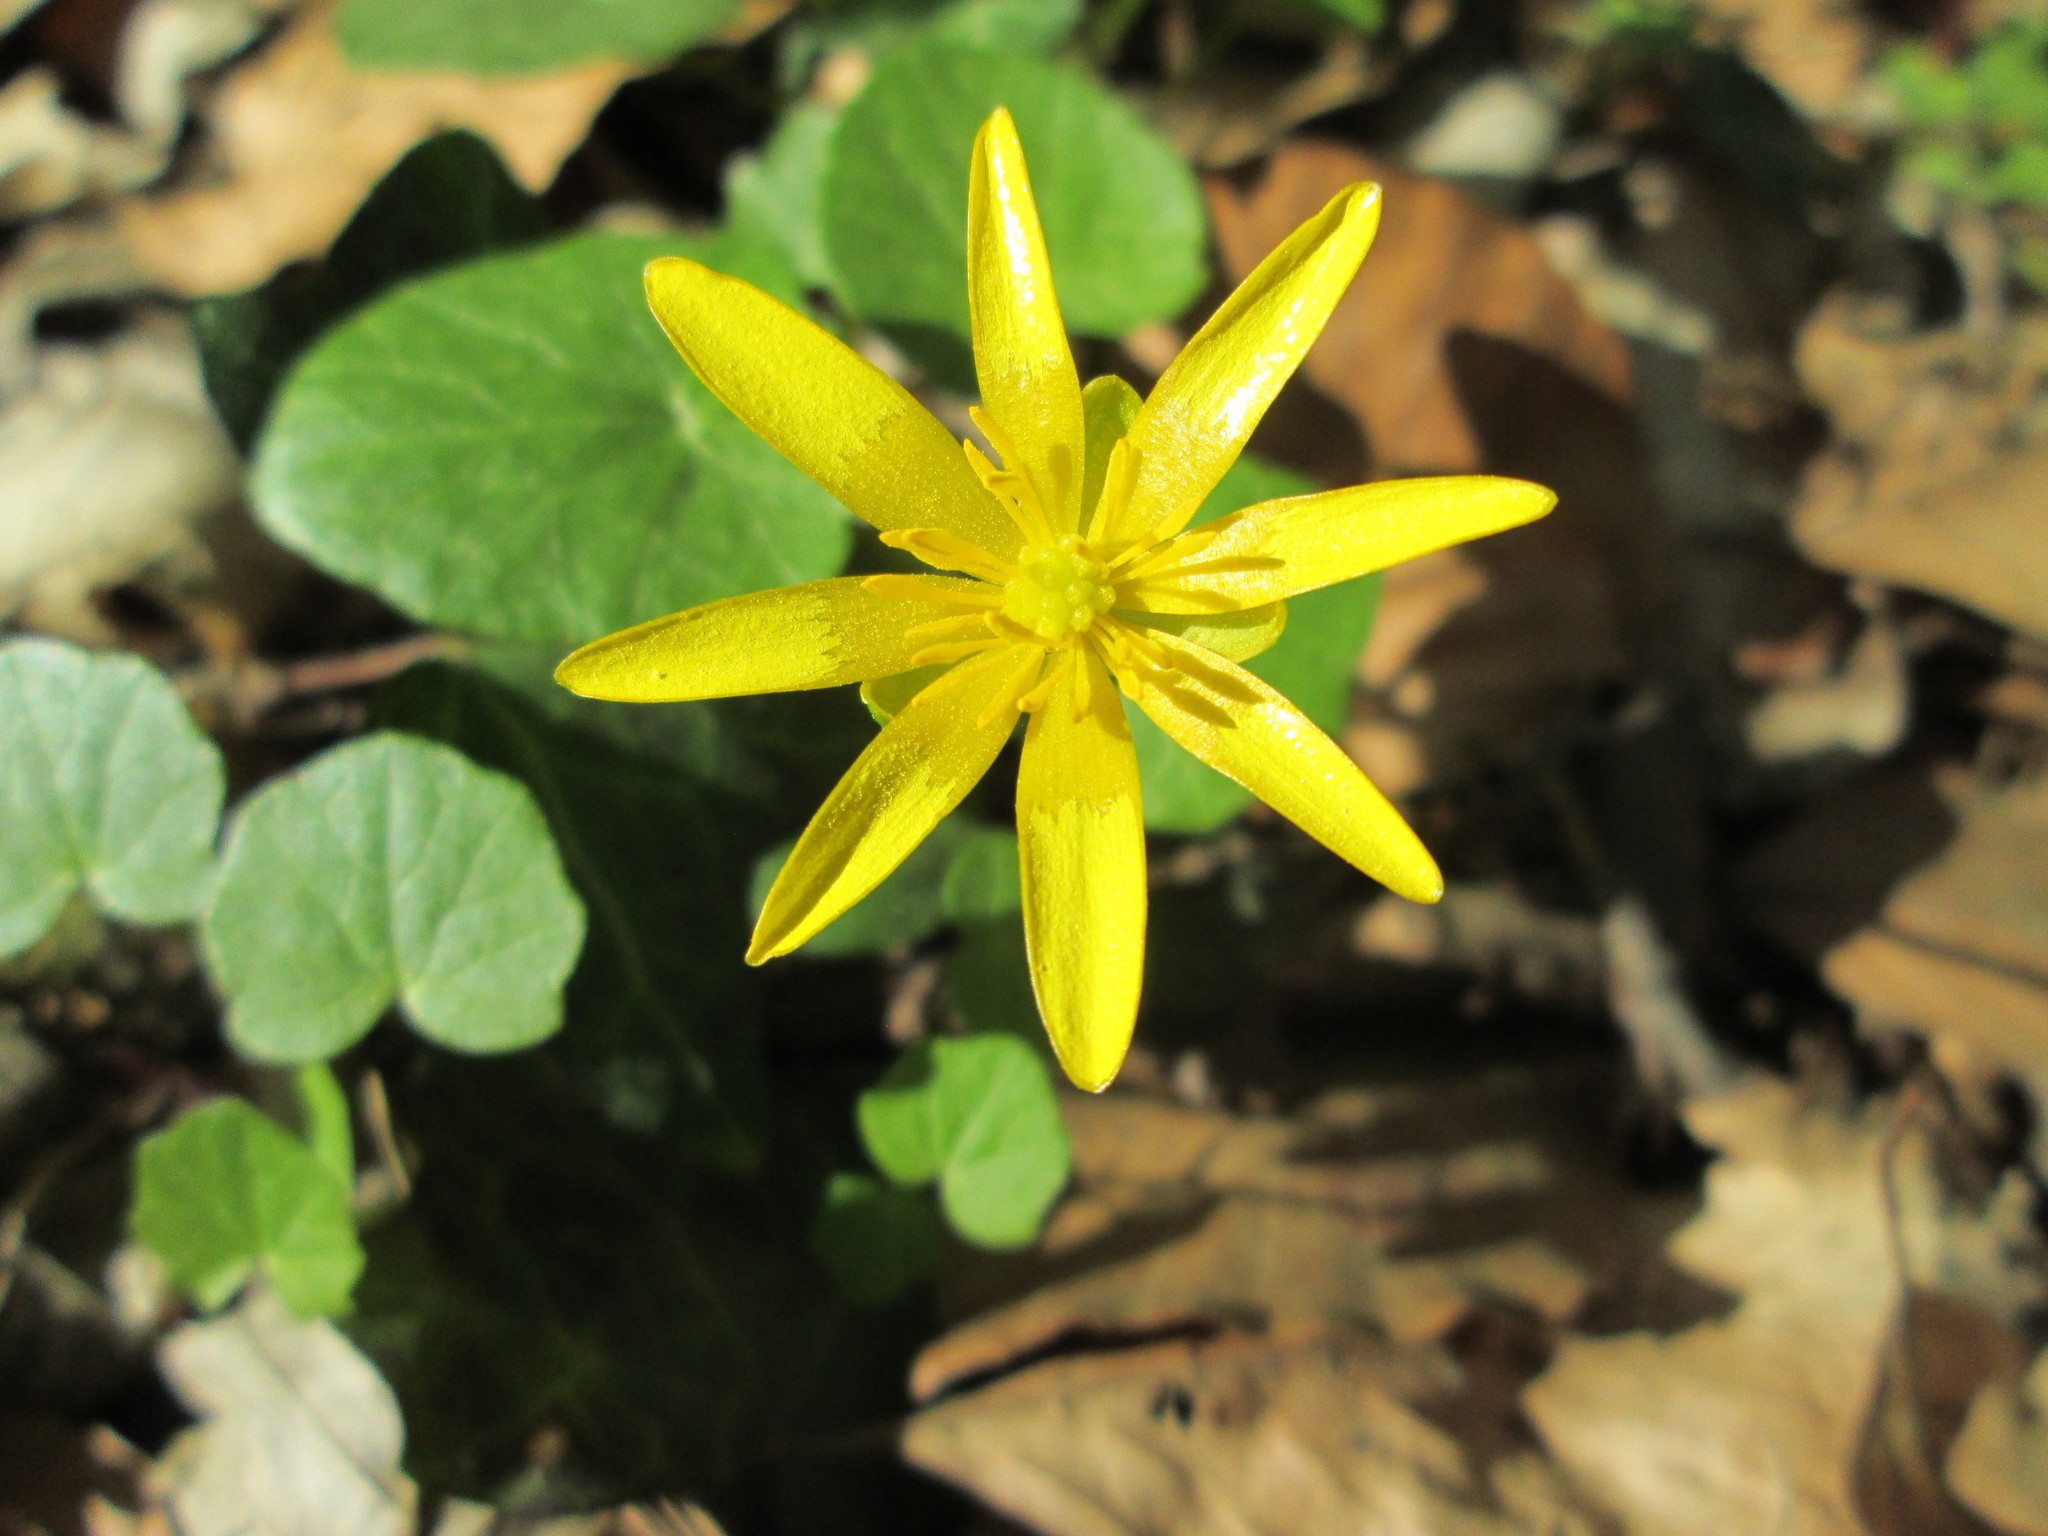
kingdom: Plantae
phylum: Tracheophyta
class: Magnoliopsida
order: Ranunculales
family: Ranunculaceae
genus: Ficaria
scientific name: Ficaria verna
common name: Lesser celandine
